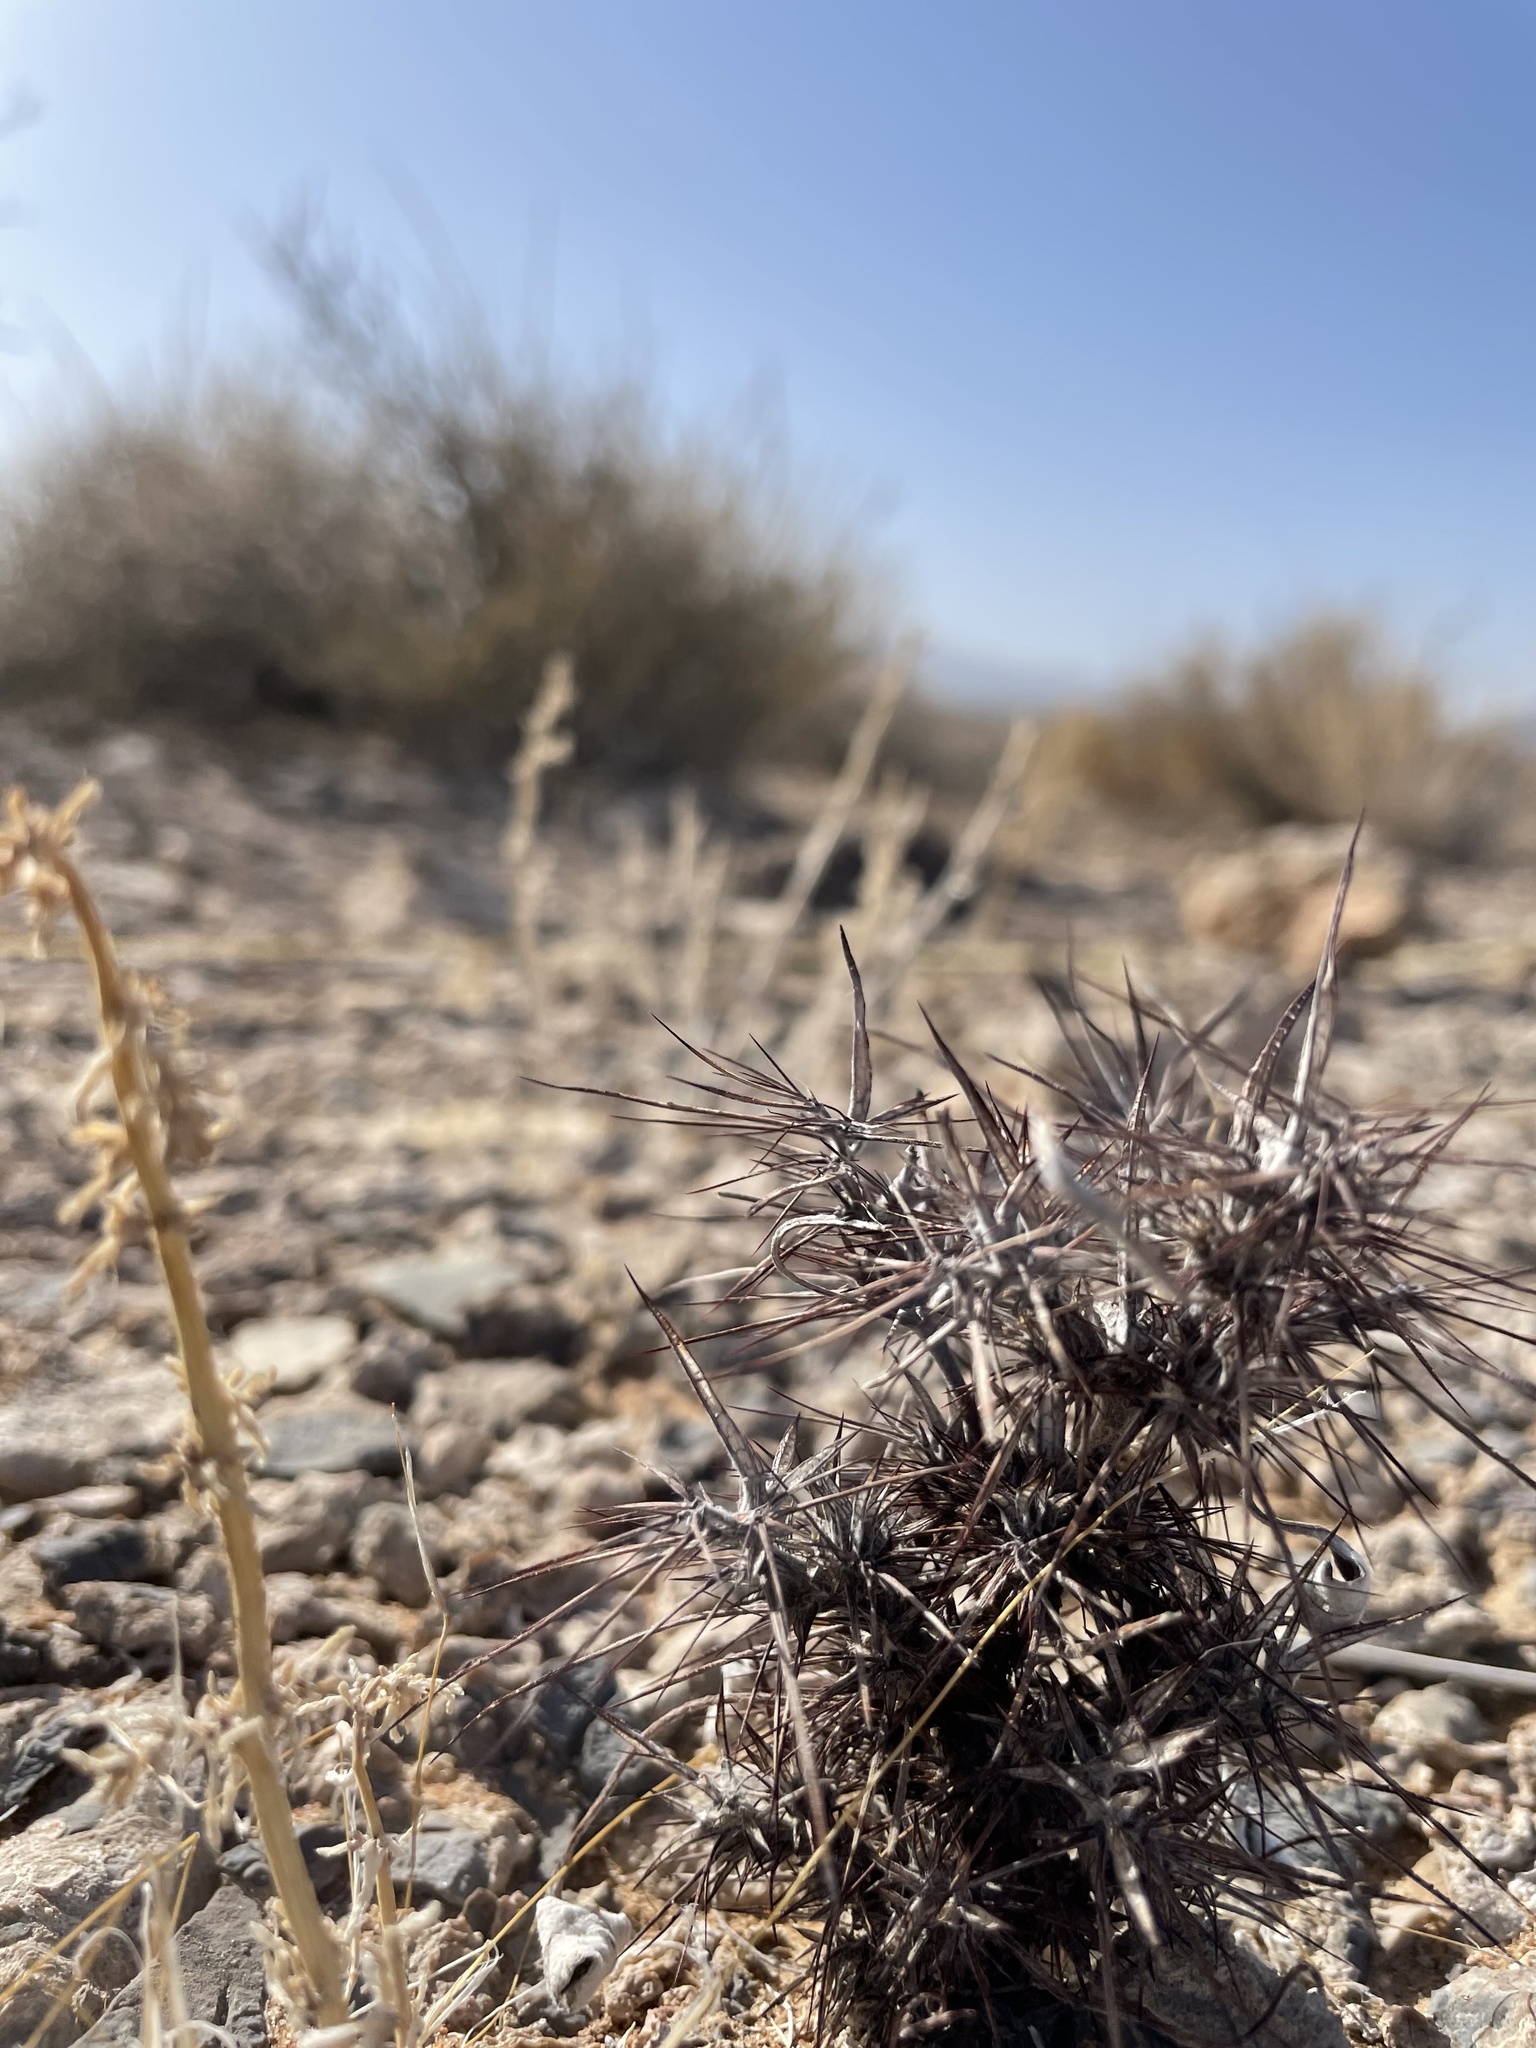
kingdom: Plantae
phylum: Tracheophyta
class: Magnoliopsida
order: Caryophyllales
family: Polygonaceae
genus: Chorizanthe
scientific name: Chorizanthe rigida
